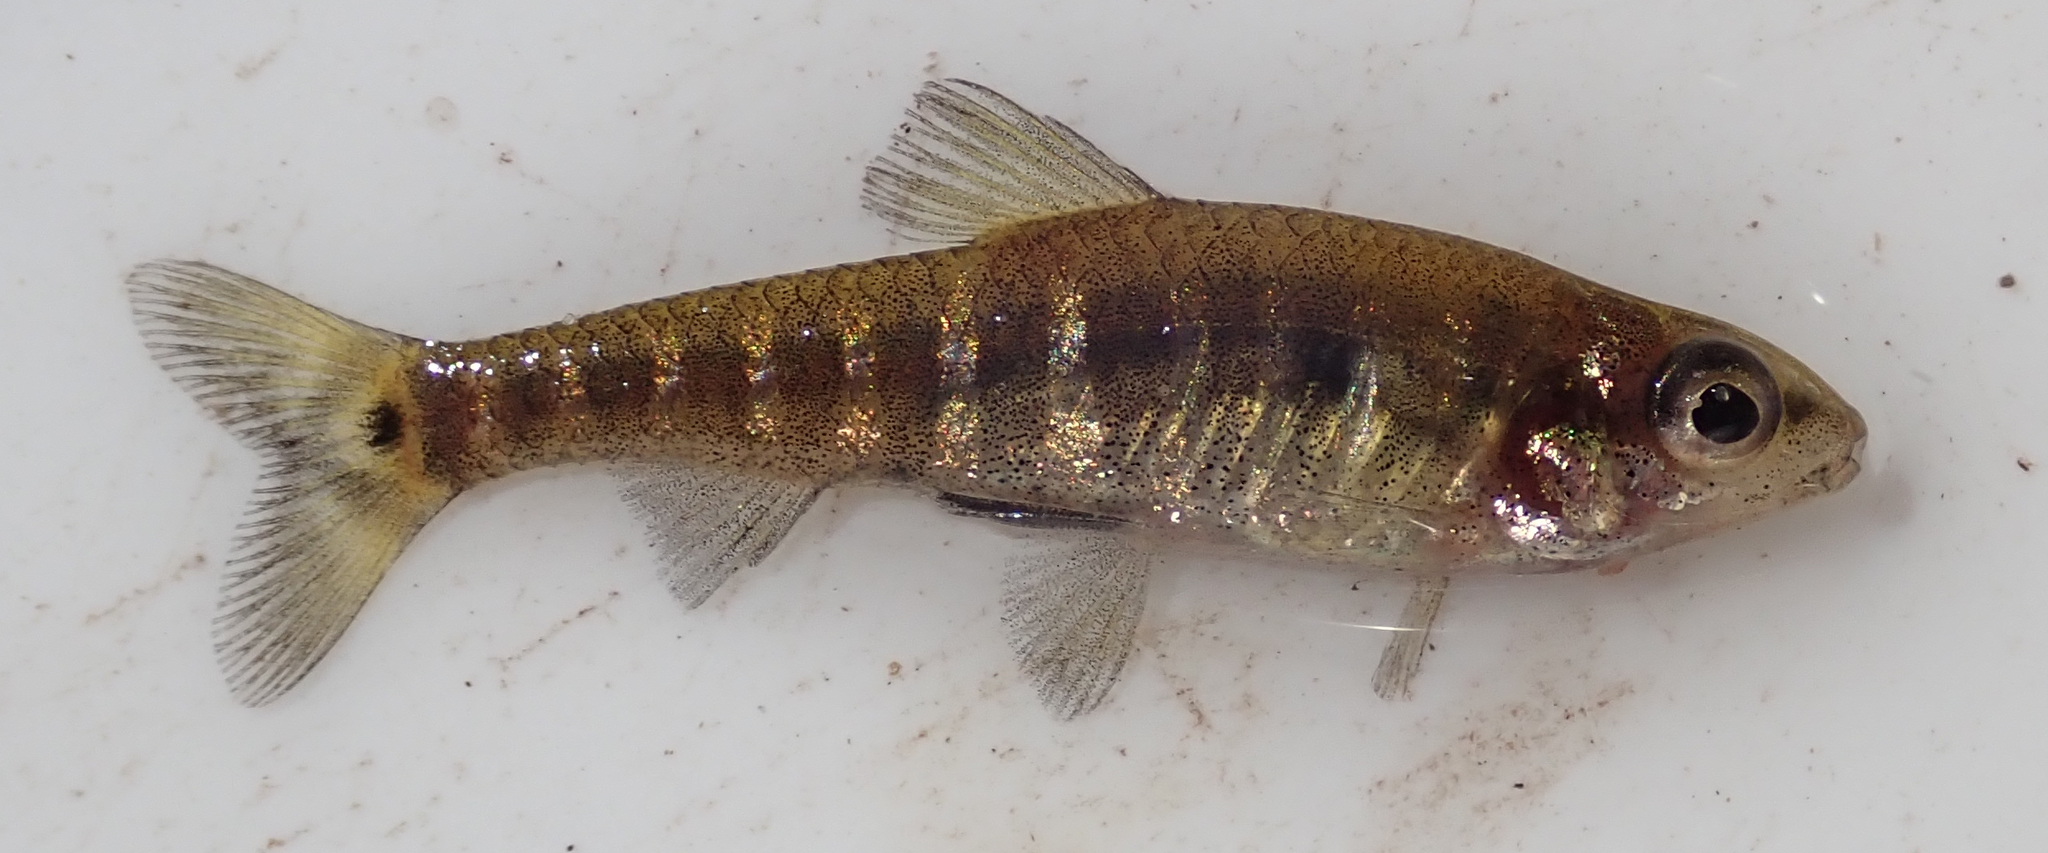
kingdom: Animalia
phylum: Chordata
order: Characiformes
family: Distichodontidae
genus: Nannocharax
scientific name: Nannocharax machadoi
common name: Dwarf citharine
